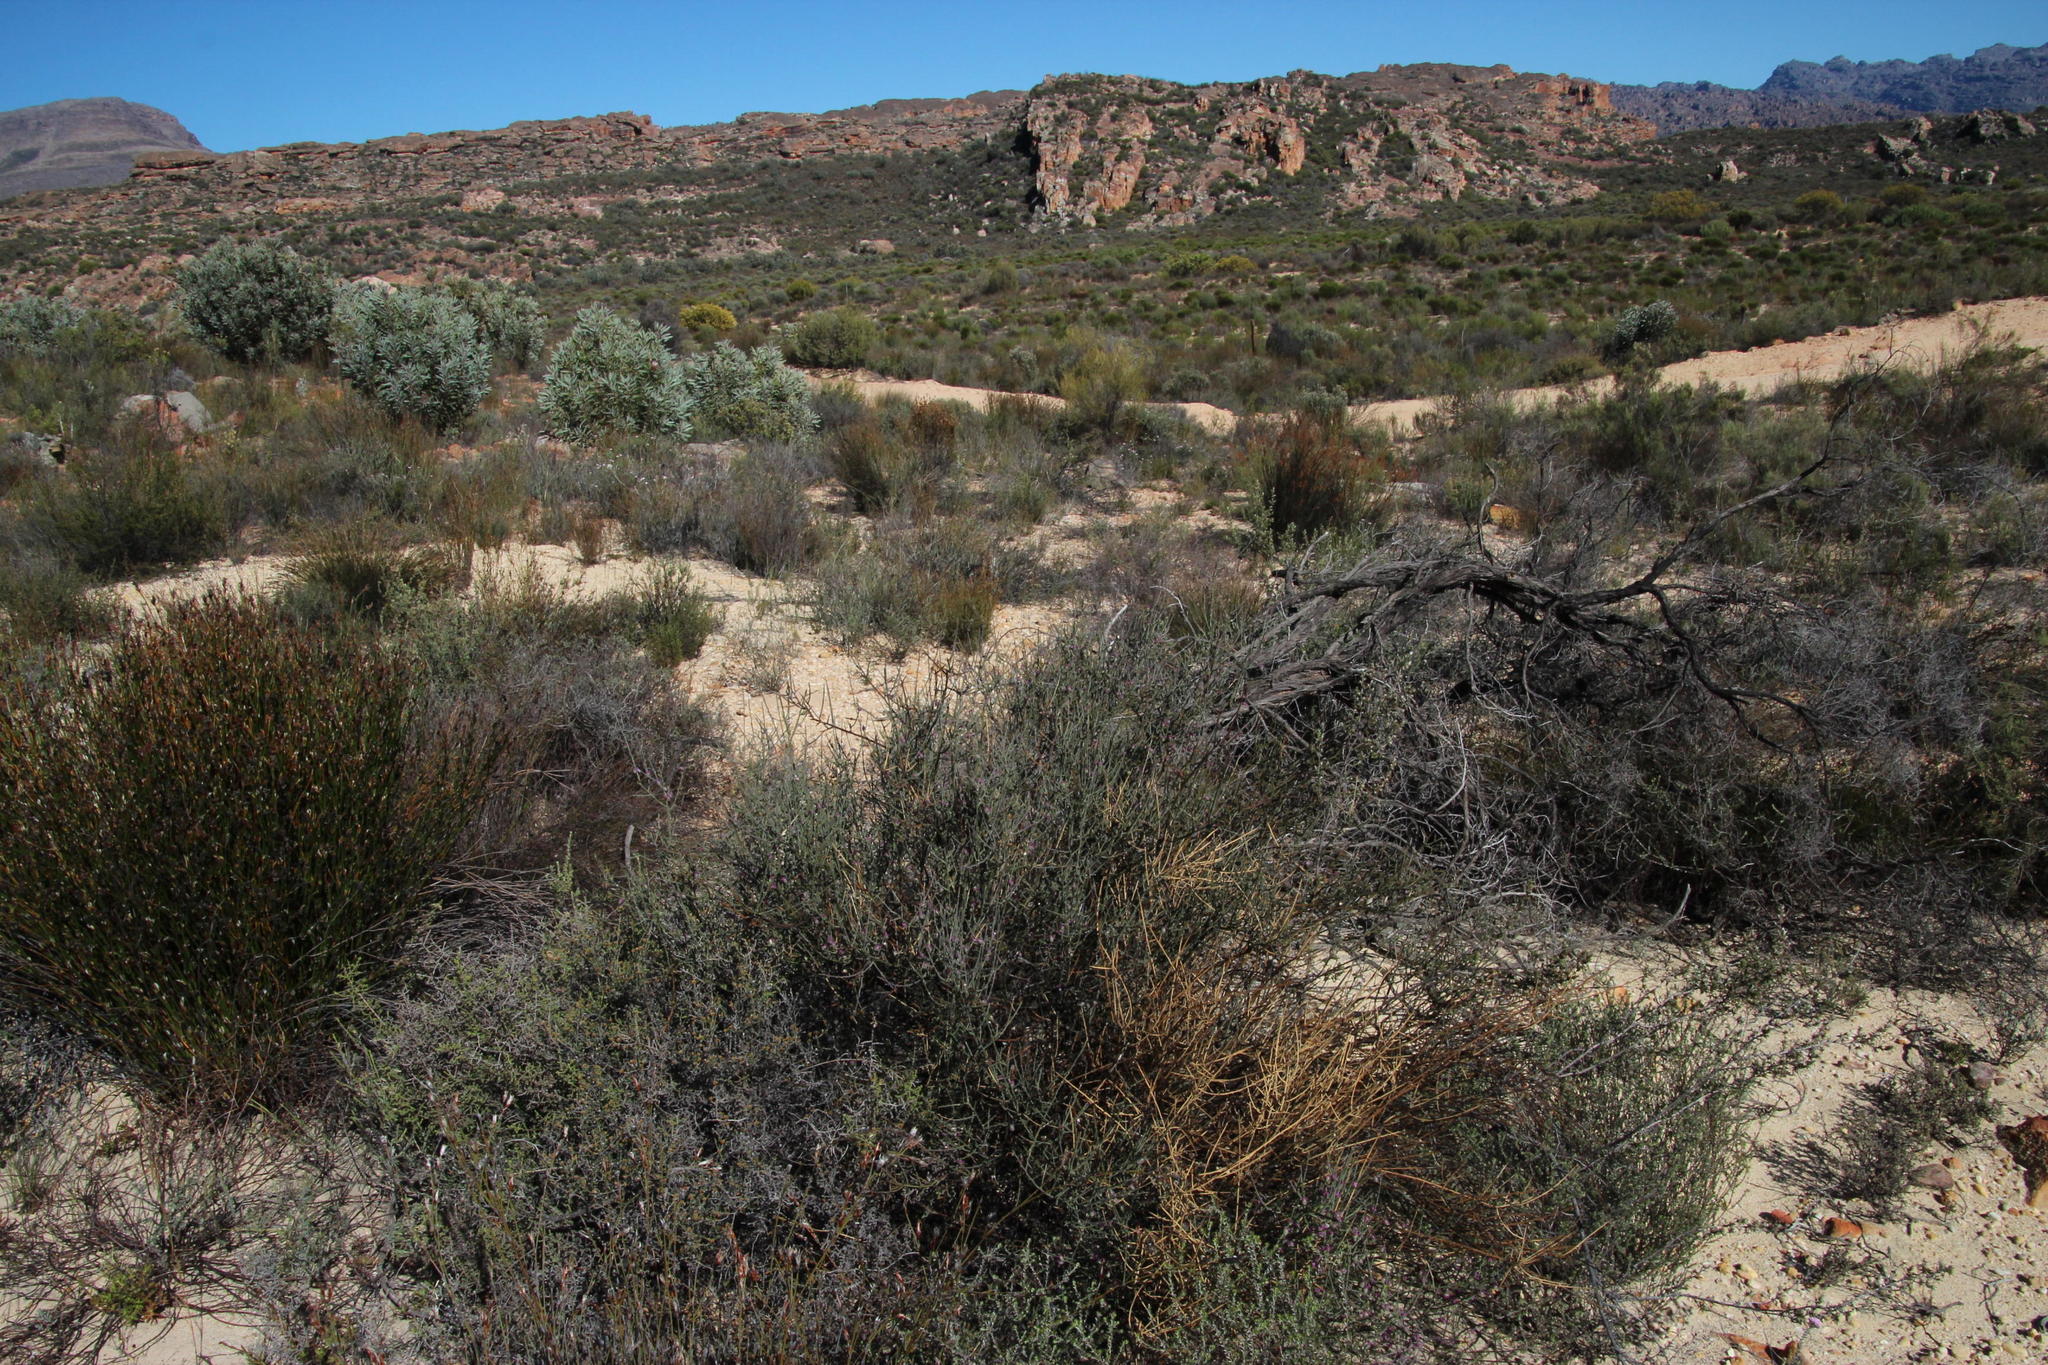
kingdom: Plantae
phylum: Tracheophyta
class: Magnoliopsida
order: Fabales
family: Polygalaceae
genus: Muraltia
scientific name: Muraltia spinosa
